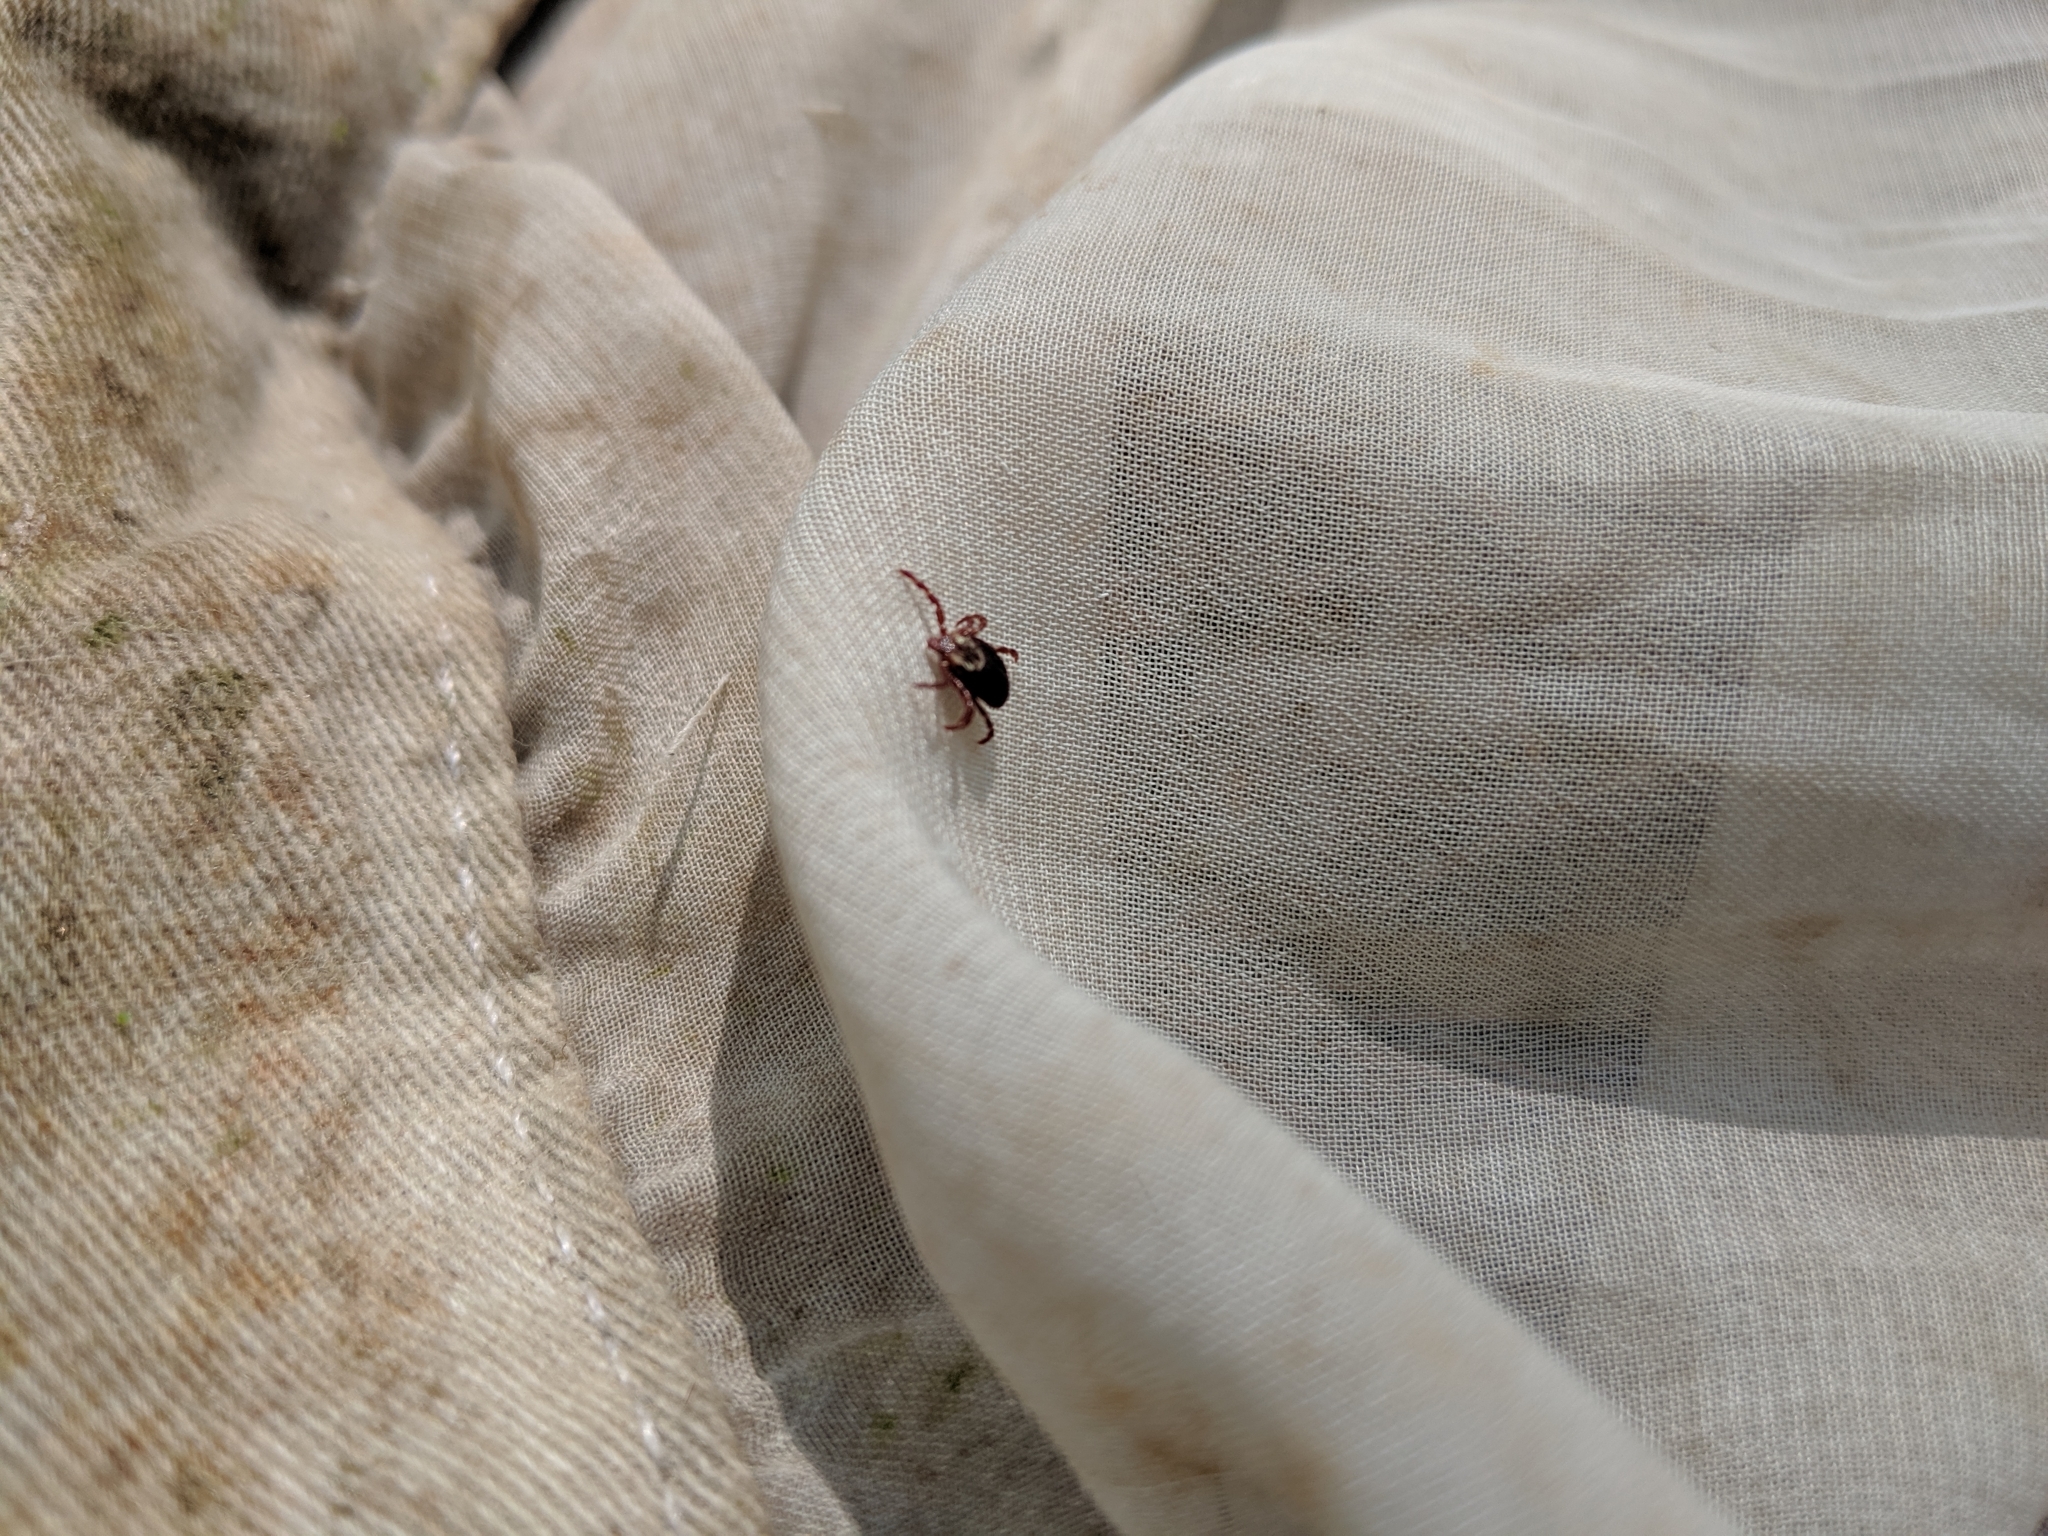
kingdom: Animalia
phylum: Arthropoda
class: Arachnida
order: Ixodida
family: Ixodidae
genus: Dermacentor
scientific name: Dermacentor variabilis
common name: American dog tick
